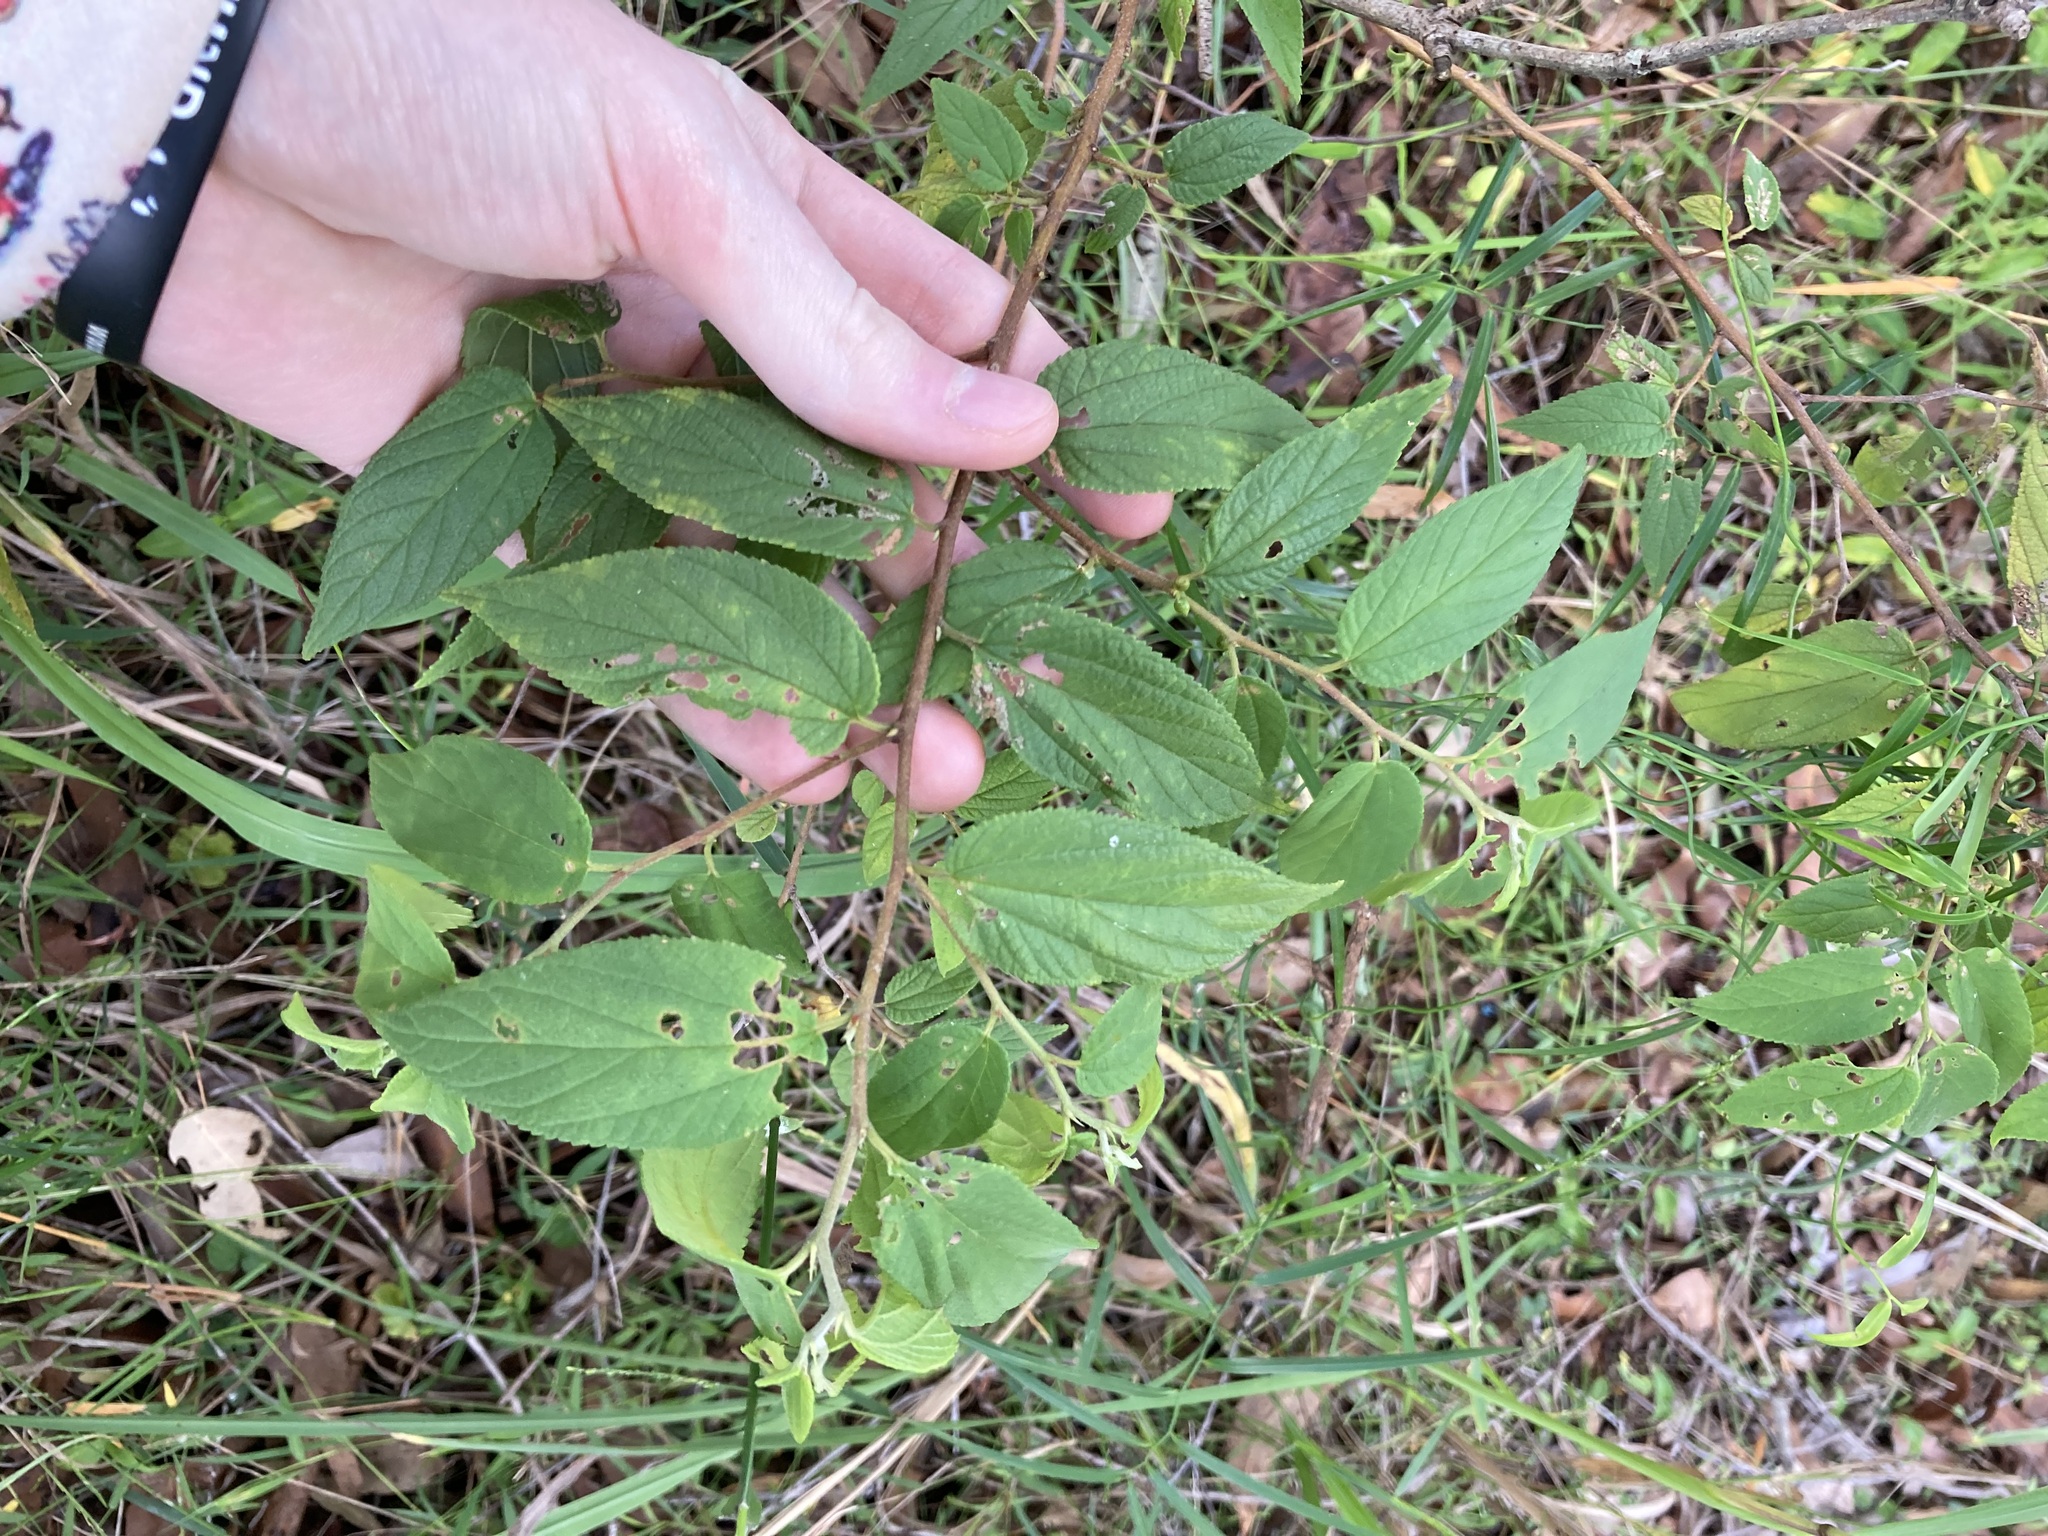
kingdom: Plantae
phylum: Tracheophyta
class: Magnoliopsida
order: Rosales
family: Cannabaceae
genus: Trema
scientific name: Trema tomentosum
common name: Peach-leaf-poisonbush
